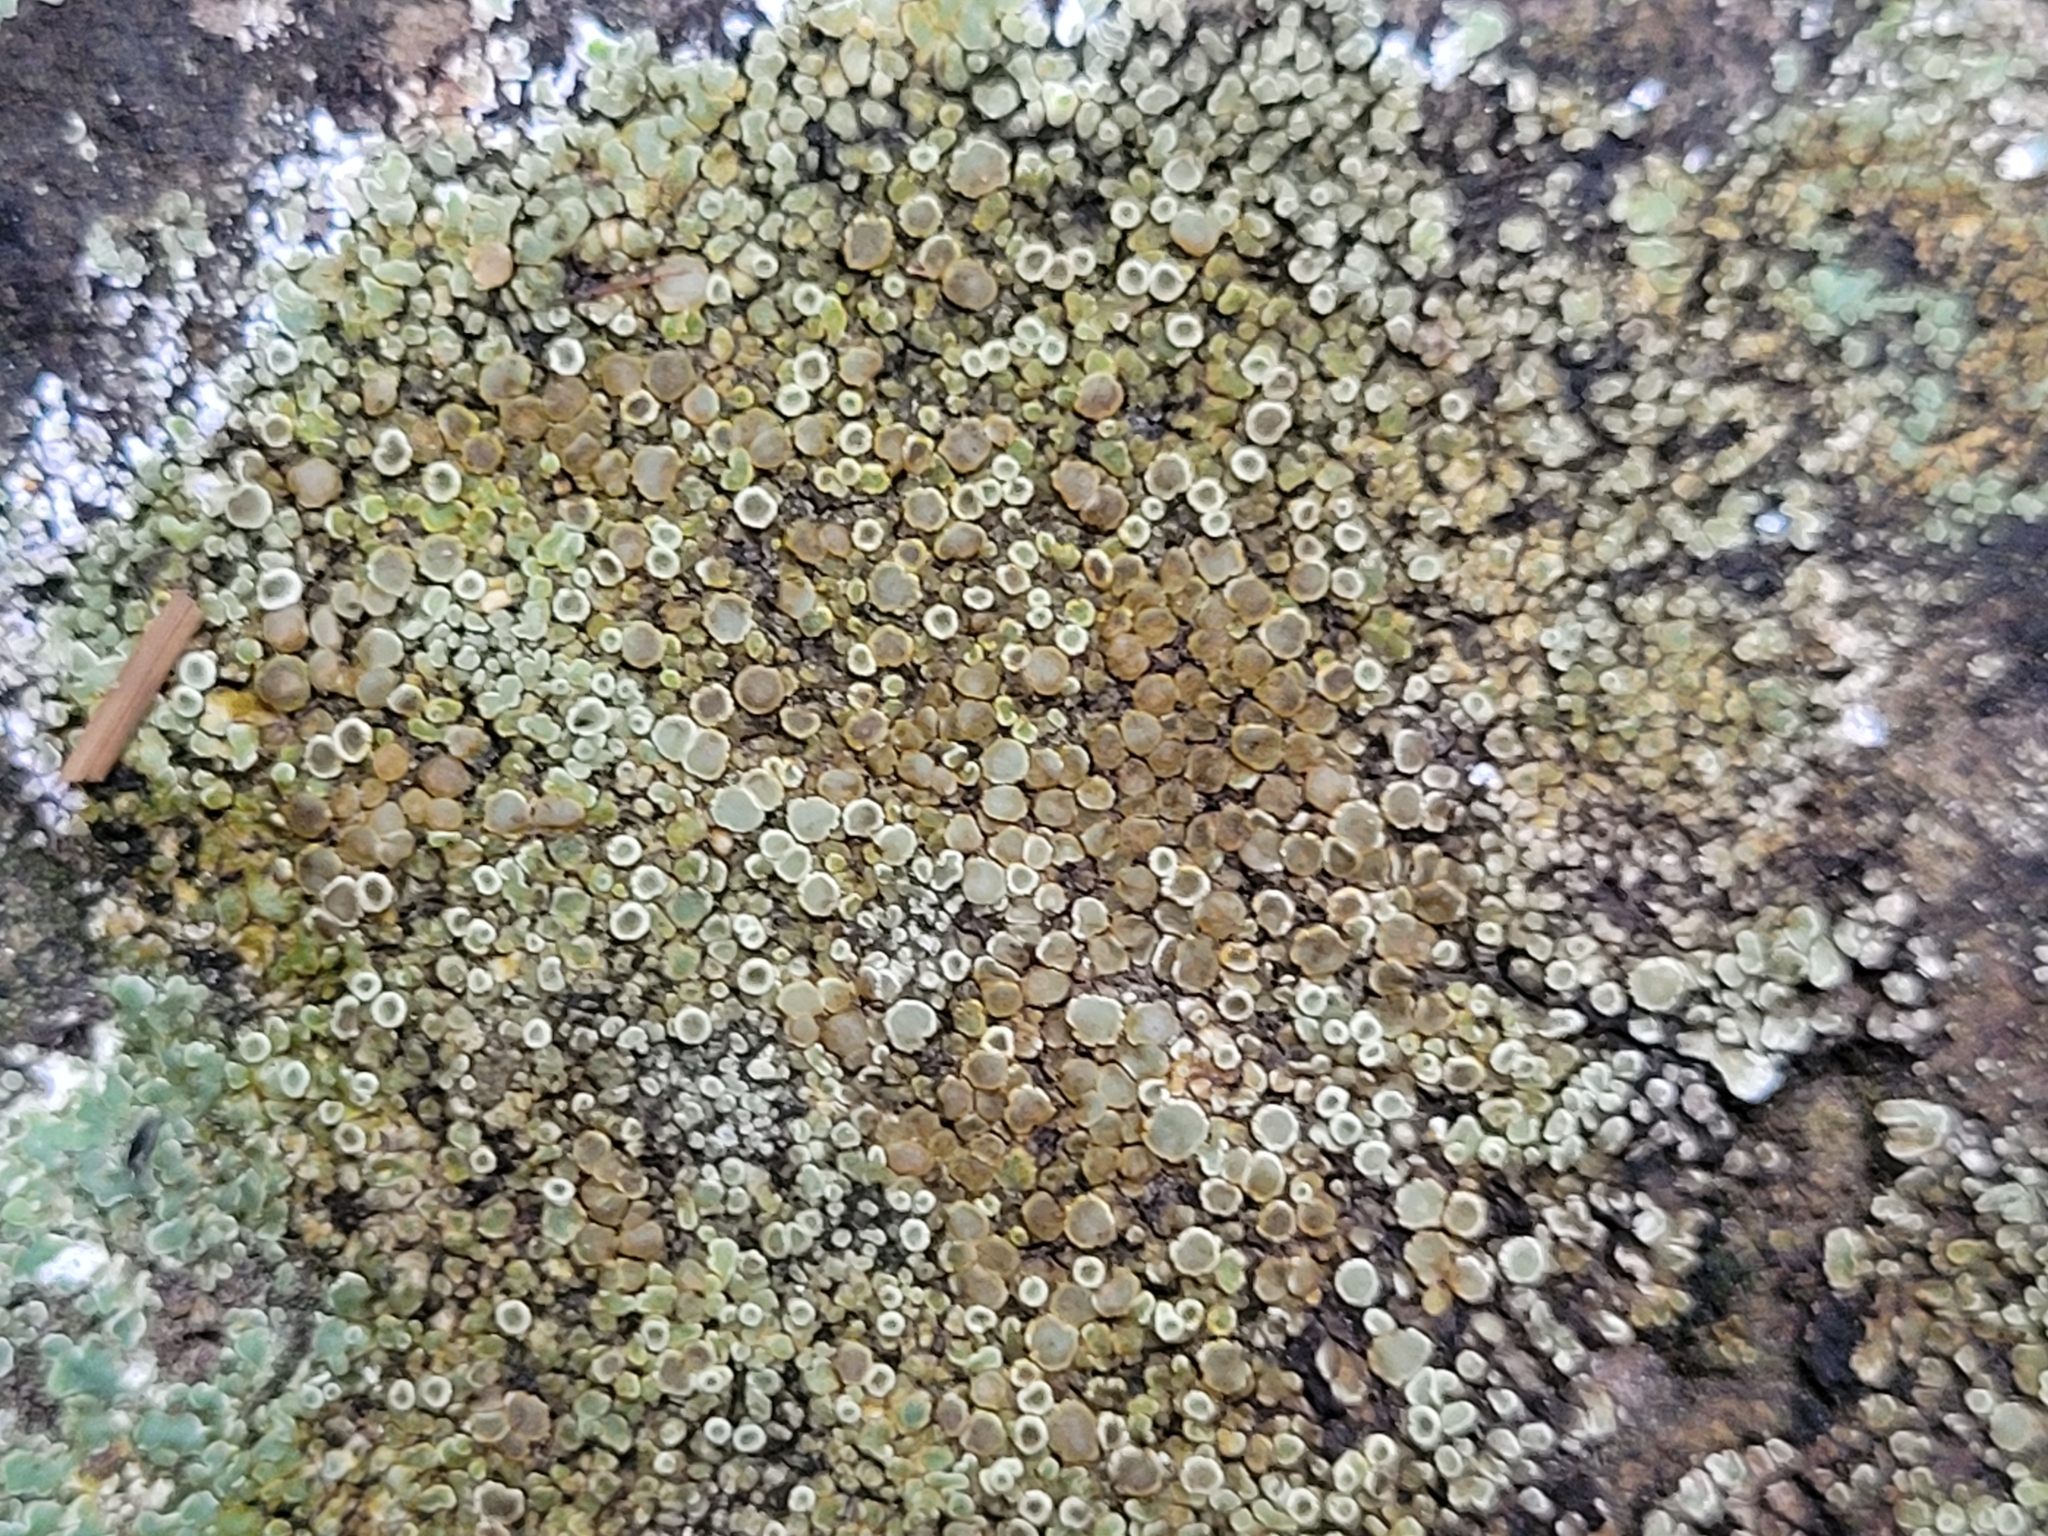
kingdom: Fungi
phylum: Ascomycota
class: Lecanoromycetes
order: Lecanorales
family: Lecanoraceae
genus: Protoparmeliopsis
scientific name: Protoparmeliopsis muralis
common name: Stonewall rim lichen
